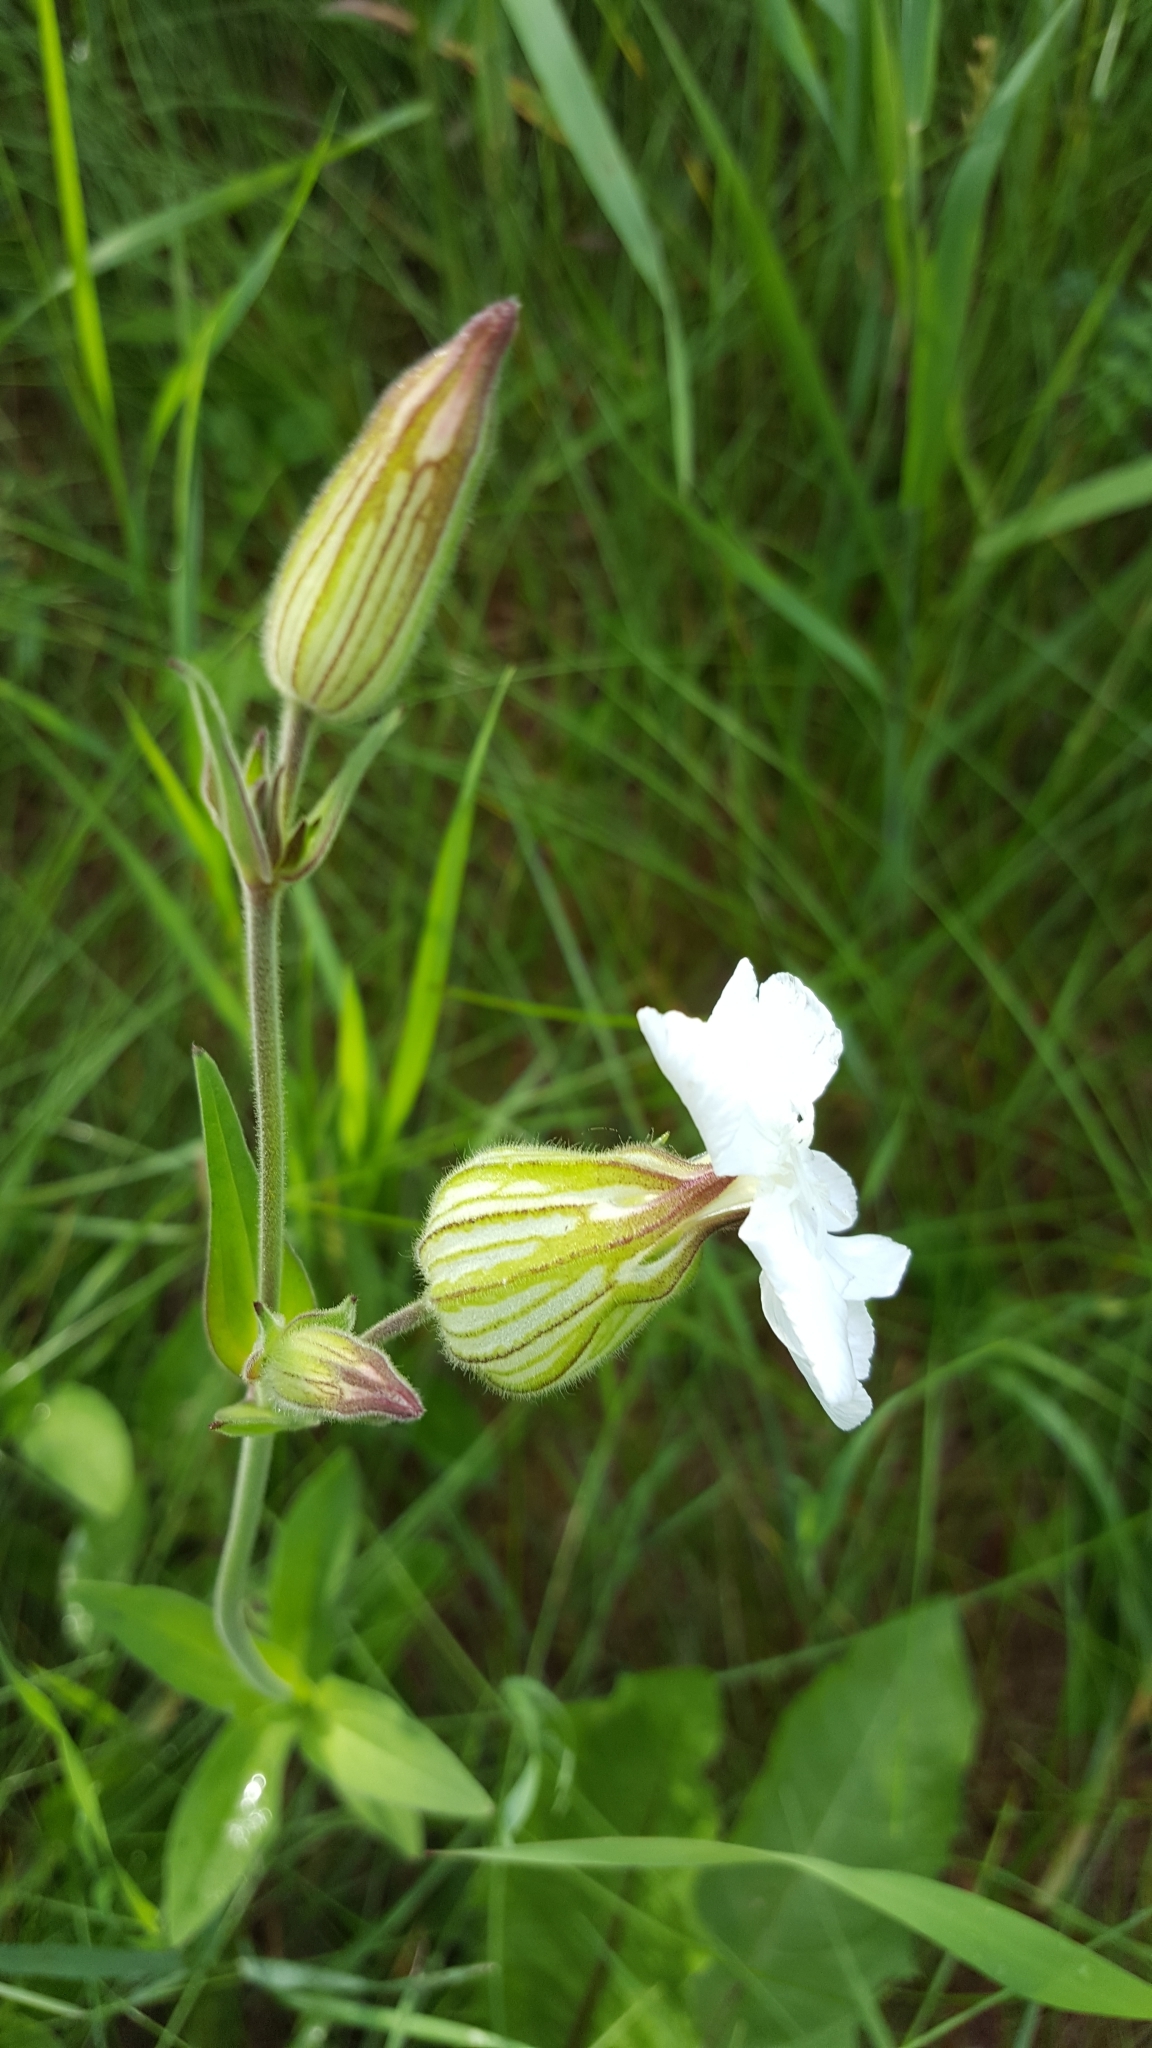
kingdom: Plantae
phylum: Tracheophyta
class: Magnoliopsida
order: Caryophyllales
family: Caryophyllaceae
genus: Silene
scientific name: Silene latifolia
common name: White campion
